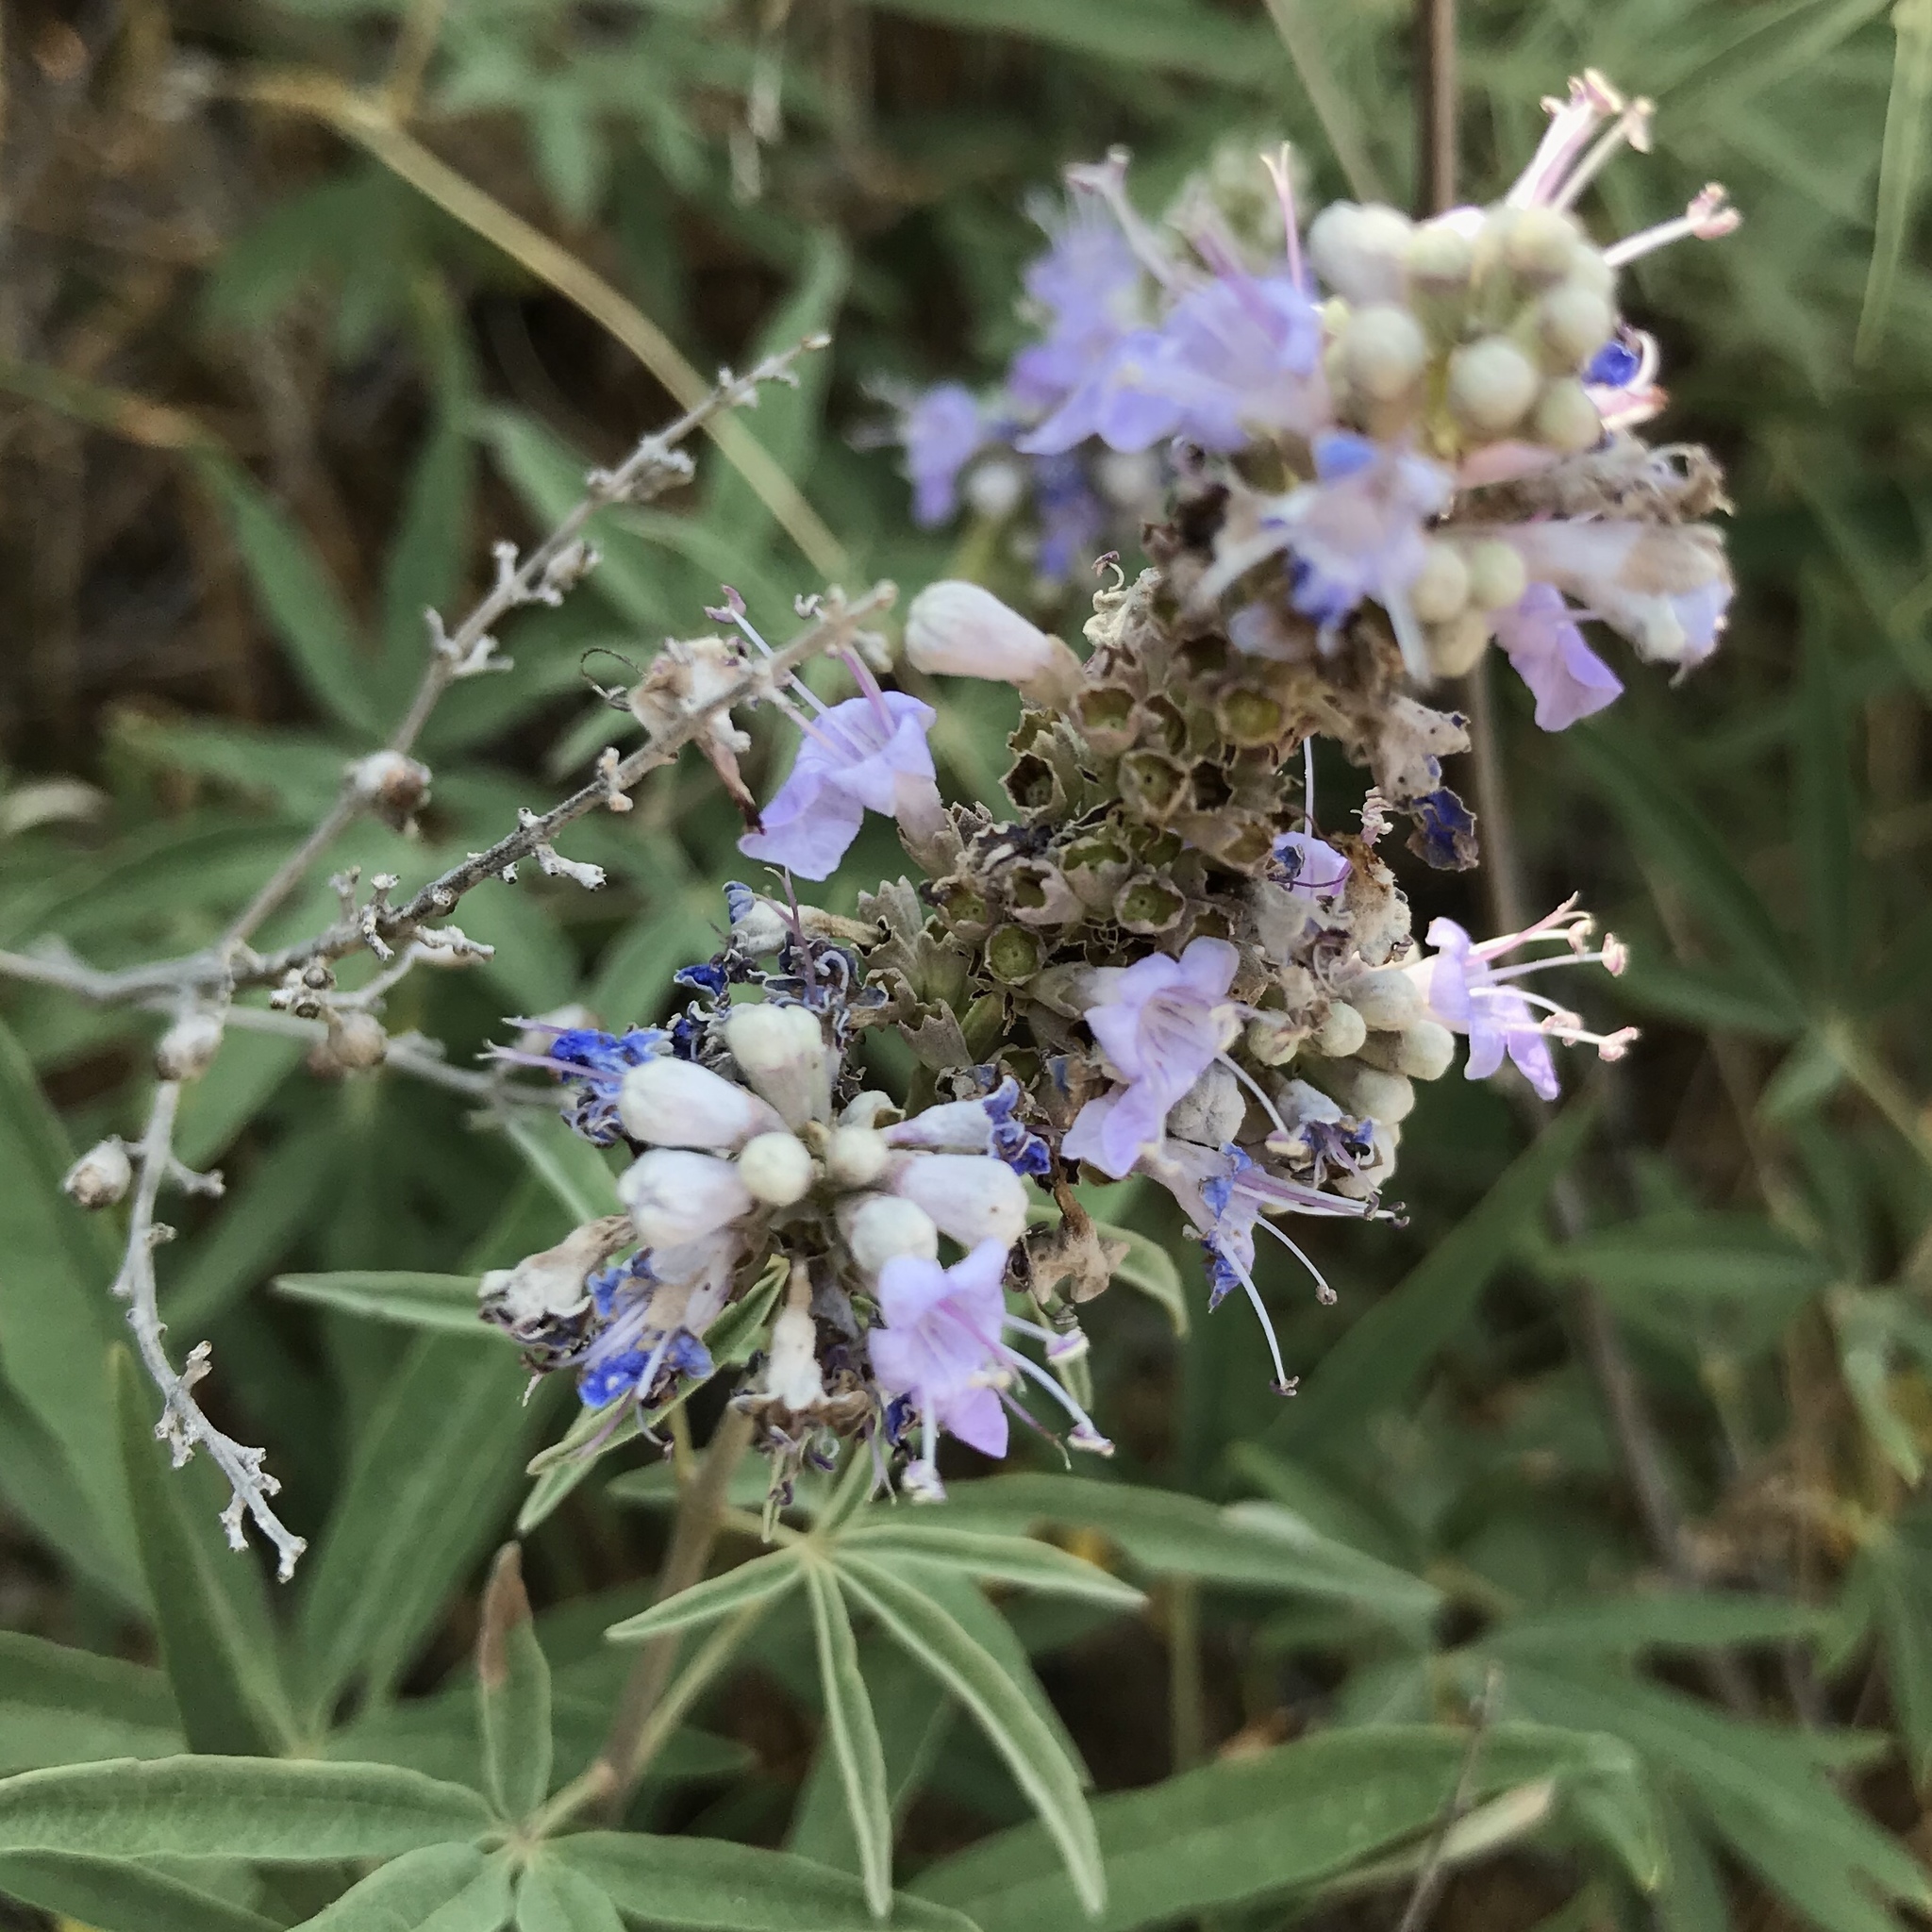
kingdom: Plantae
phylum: Tracheophyta
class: Magnoliopsida
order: Lamiales
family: Lamiaceae
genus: Vitex
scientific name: Vitex agnus-castus
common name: Chasteberry
